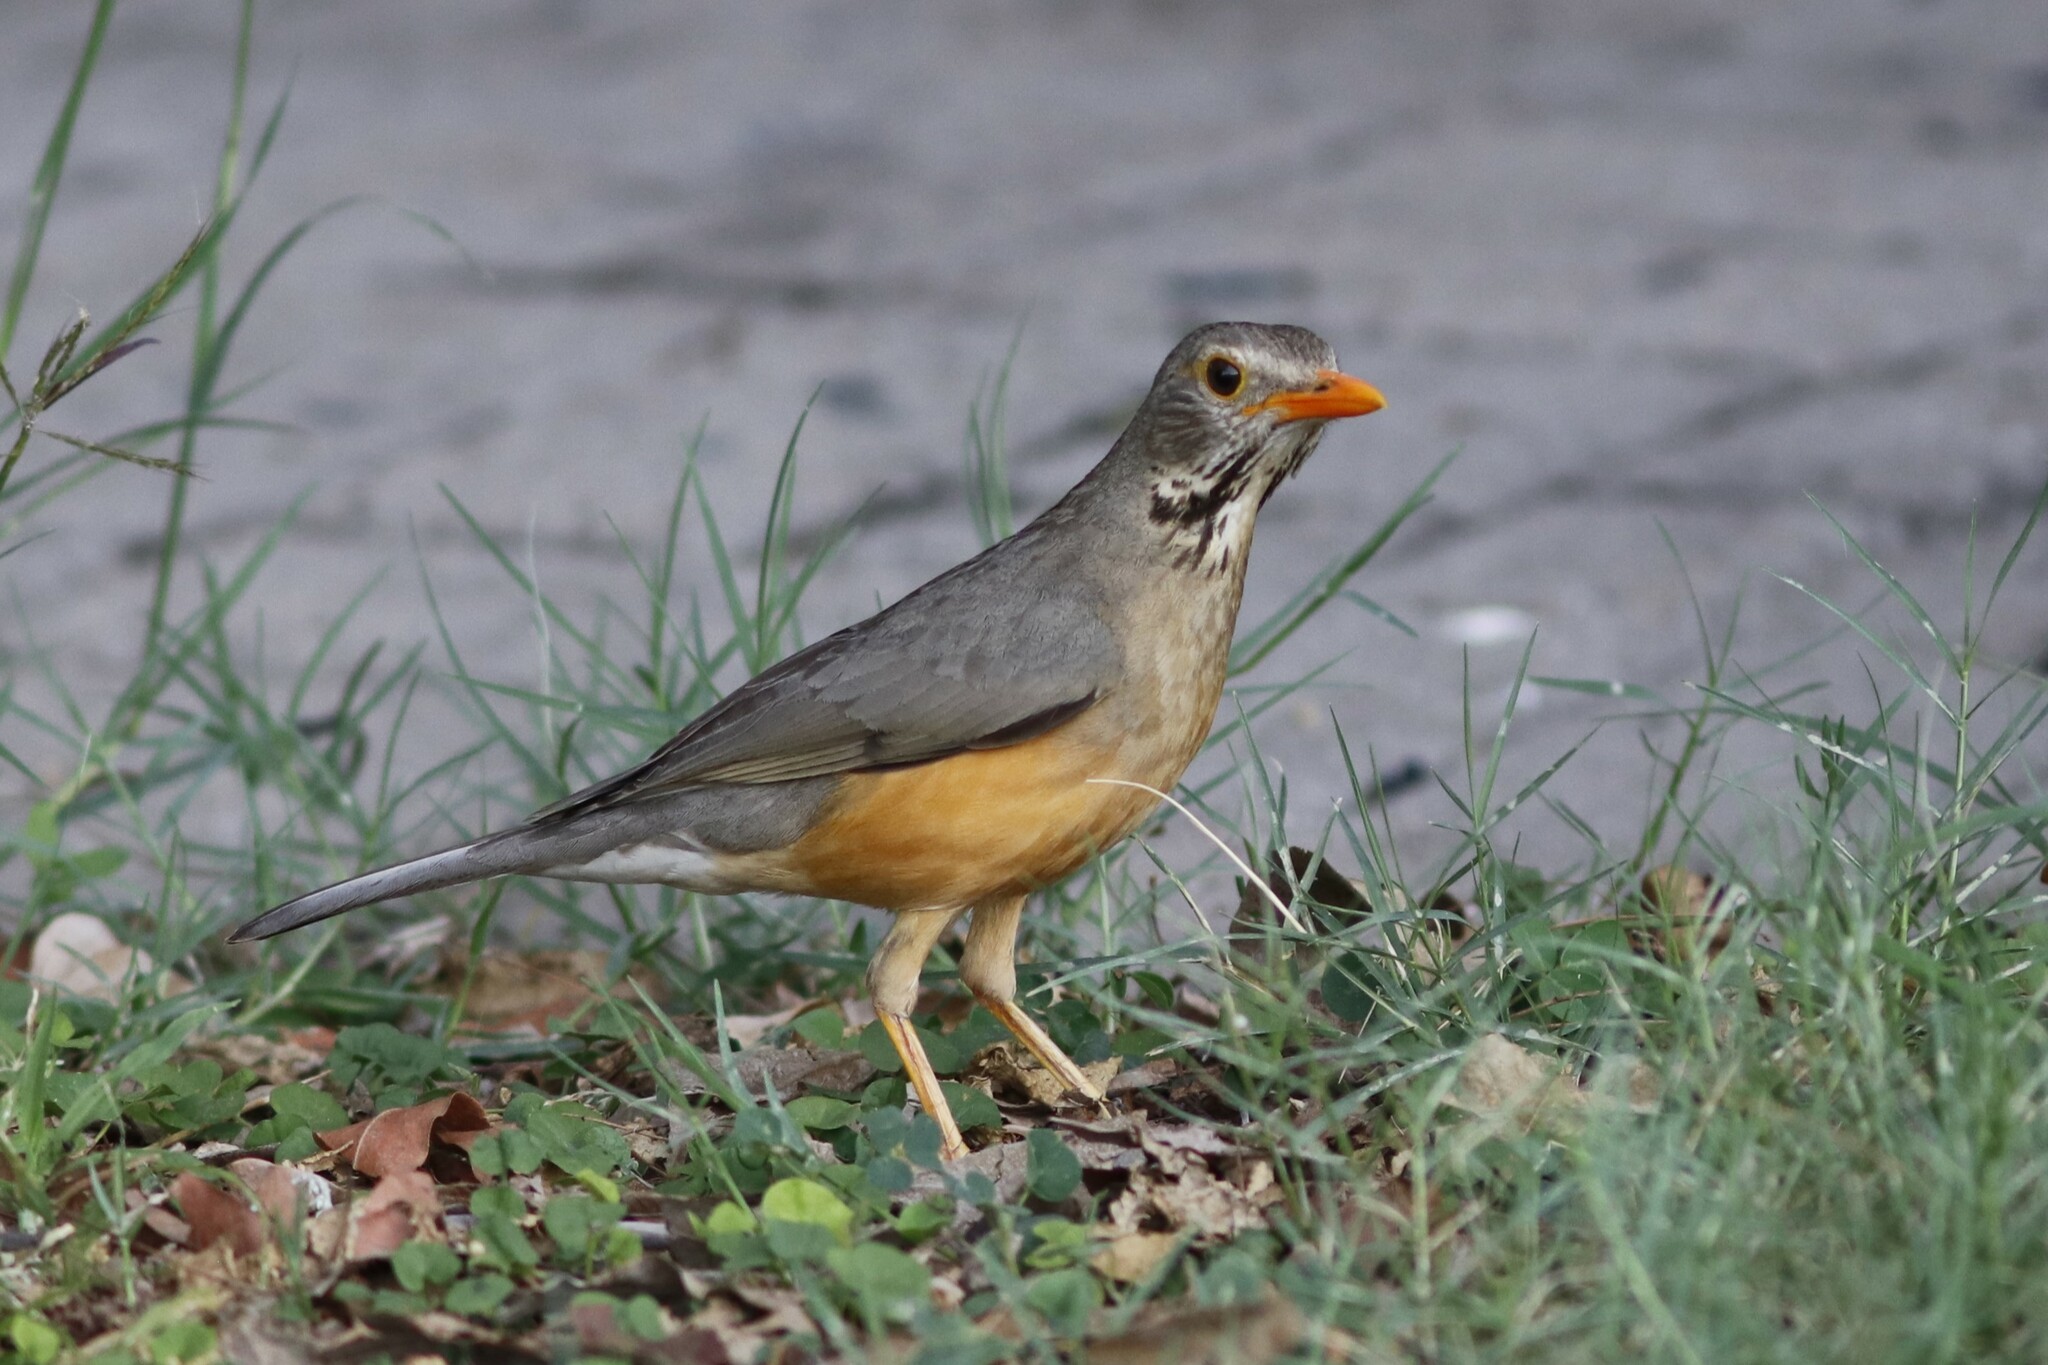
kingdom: Animalia
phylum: Chordata
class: Aves
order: Passeriformes
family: Turdidae
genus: Turdus
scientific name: Turdus libonyana
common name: Kurrichane thrush
